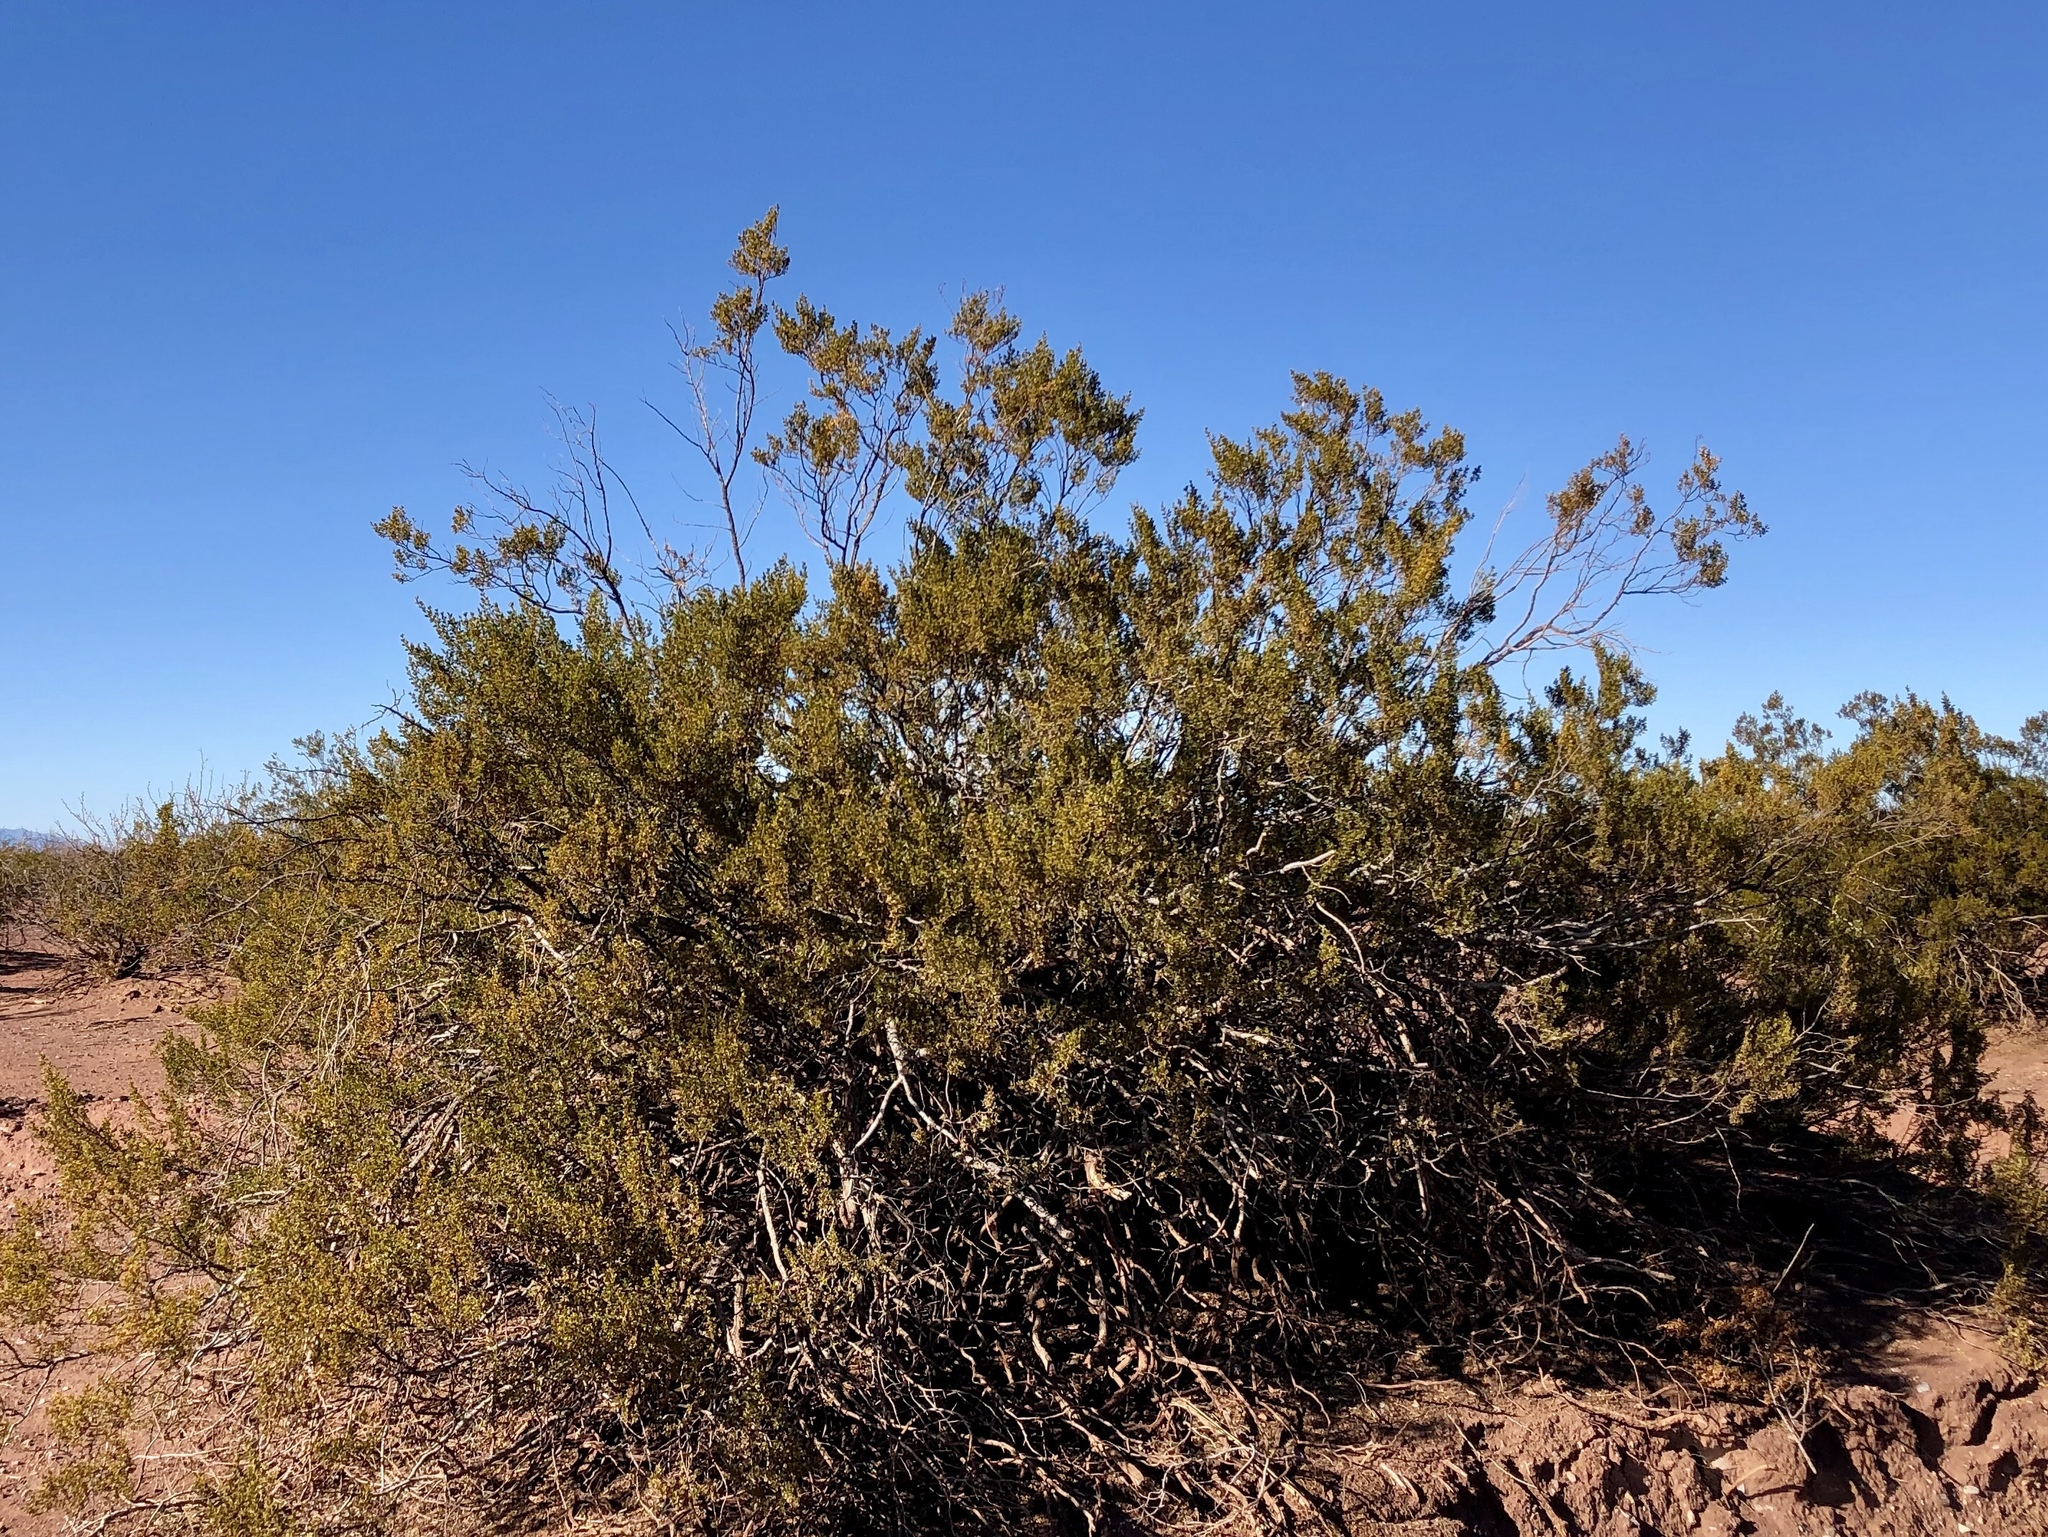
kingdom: Plantae
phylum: Tracheophyta
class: Magnoliopsida
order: Zygophyllales
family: Zygophyllaceae
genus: Larrea
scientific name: Larrea tridentata
